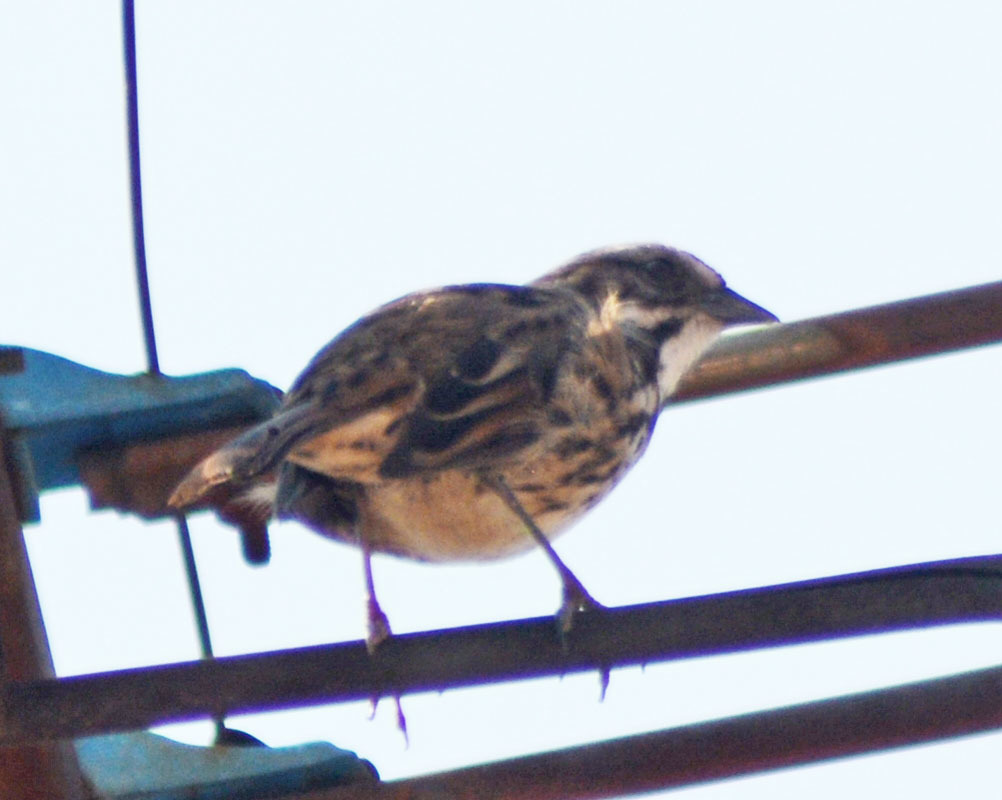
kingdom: Animalia
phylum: Chordata
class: Aves
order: Passeriformes
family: Passerellidae
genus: Melospiza
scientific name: Melospiza melodia
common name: Song sparrow
